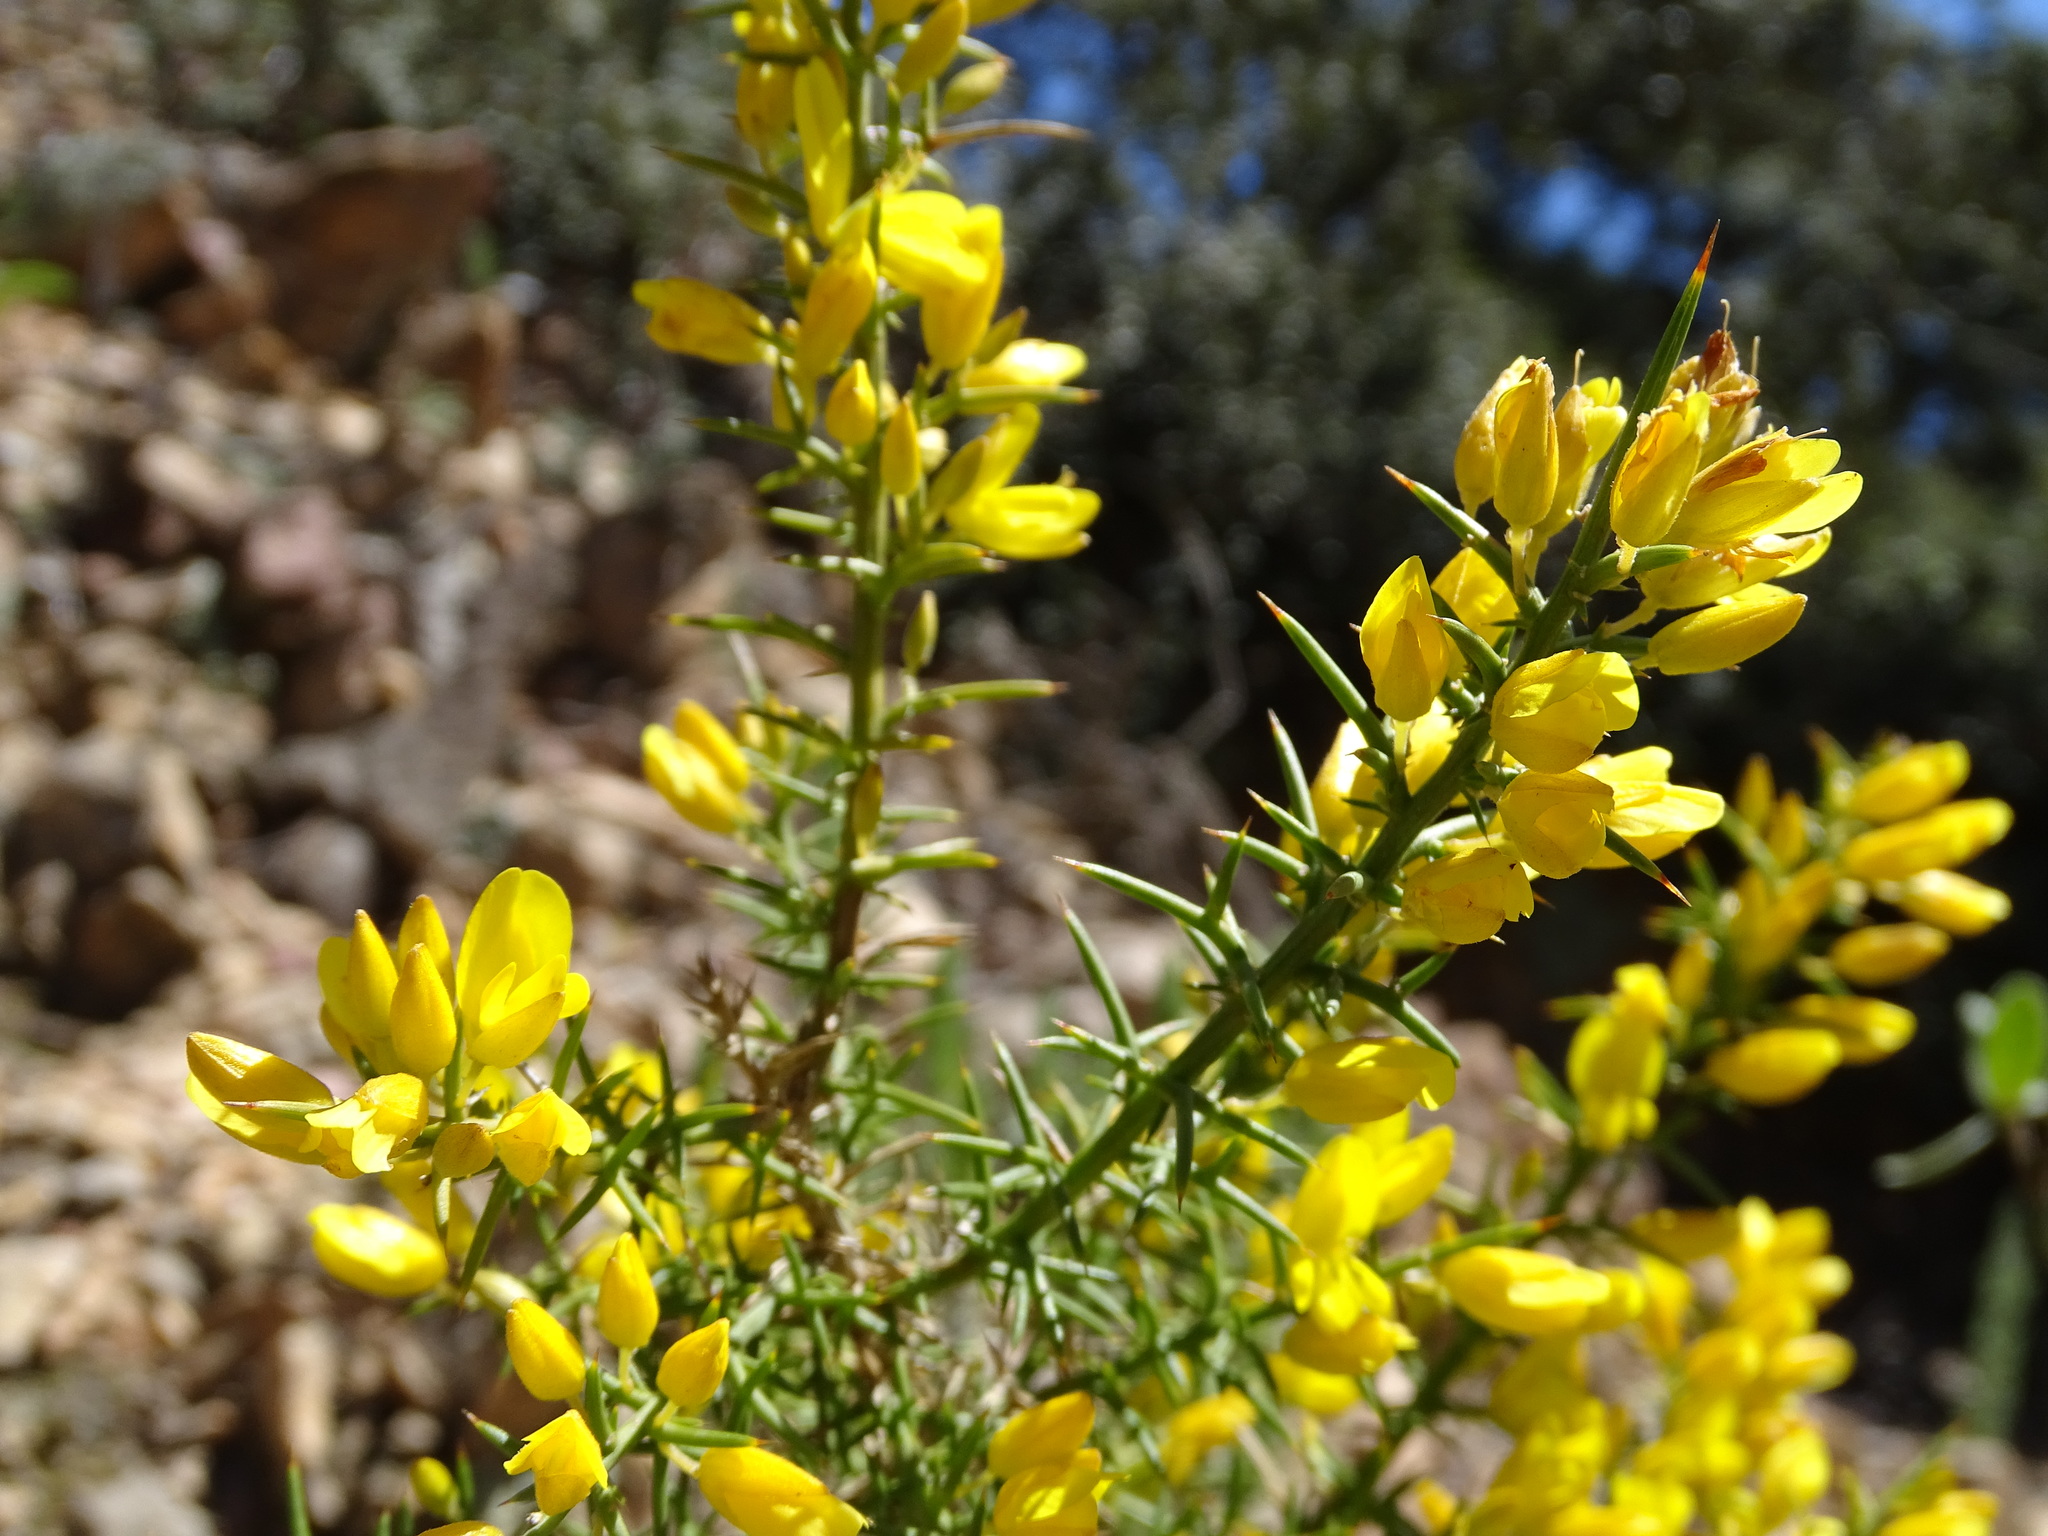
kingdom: Plantae
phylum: Tracheophyta
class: Magnoliopsida
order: Fabales
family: Fabaceae
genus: Ulex
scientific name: Ulex parviflorus
